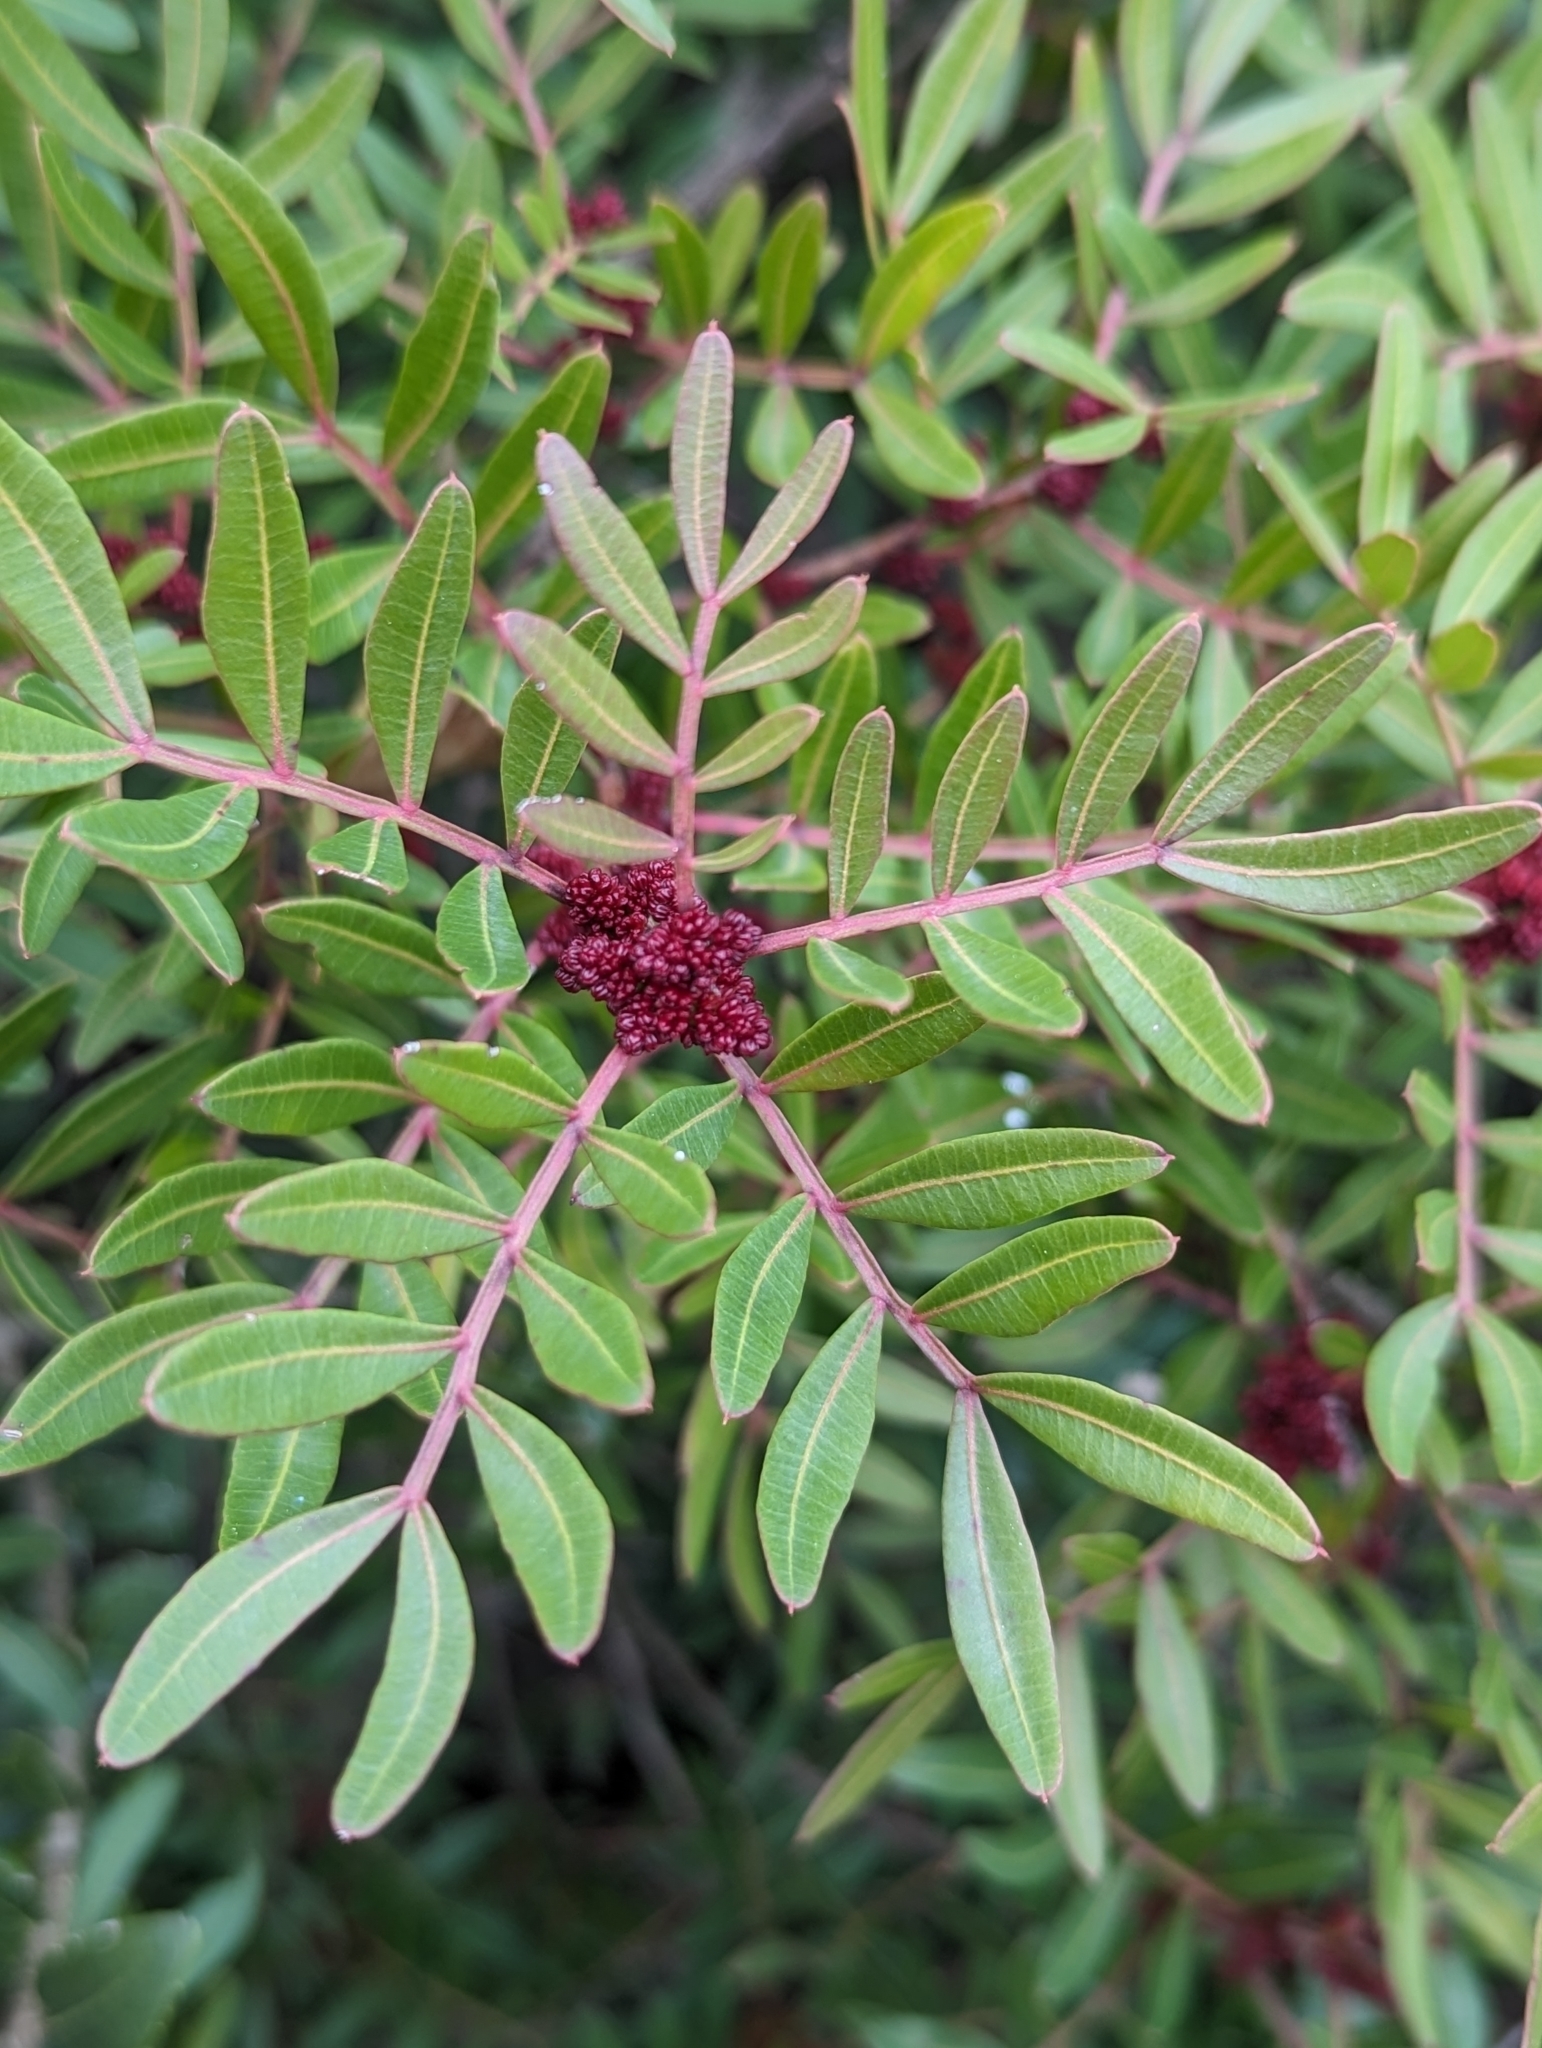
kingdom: Plantae
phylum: Tracheophyta
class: Magnoliopsida
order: Sapindales
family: Anacardiaceae
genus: Pistacia
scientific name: Pistacia lentiscus
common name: Lentisk
